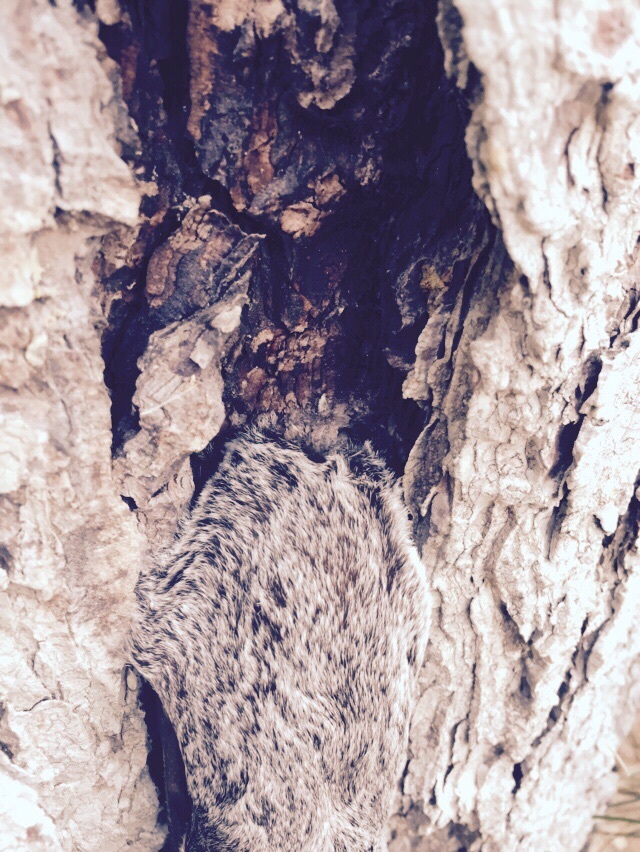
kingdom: Animalia
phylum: Chordata
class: Mammalia
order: Chiroptera
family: Vespertilionidae
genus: Aeorestes
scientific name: Aeorestes cinereus
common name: North american hoary bat
